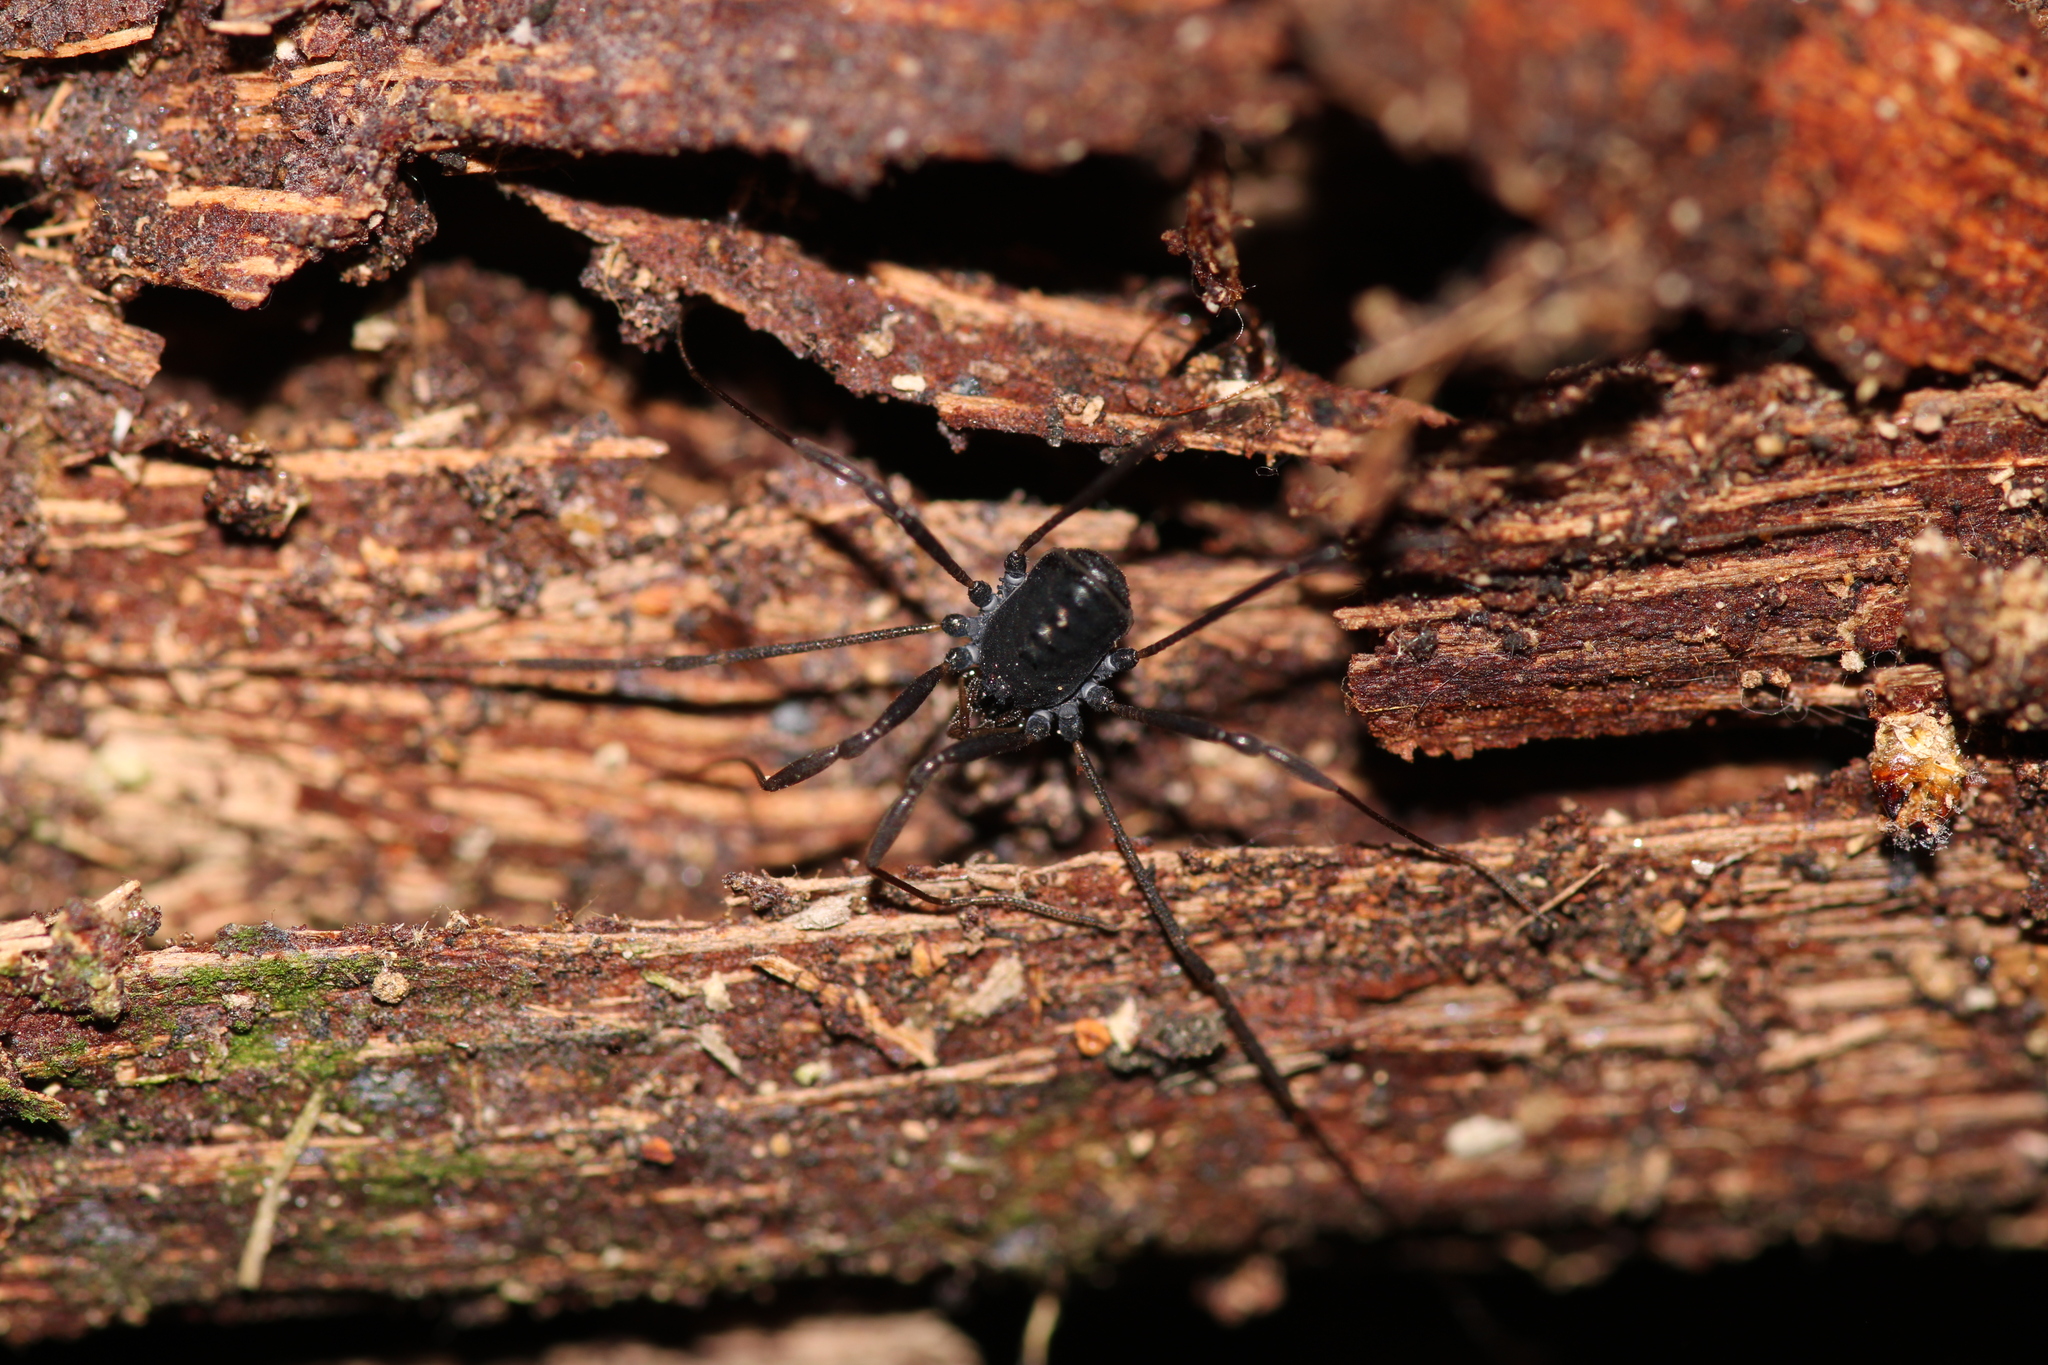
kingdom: Animalia
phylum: Arthropoda
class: Arachnida
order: Opiliones
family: Nemastomatidae
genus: Histricostoma
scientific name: Histricostoma dentipalpe
